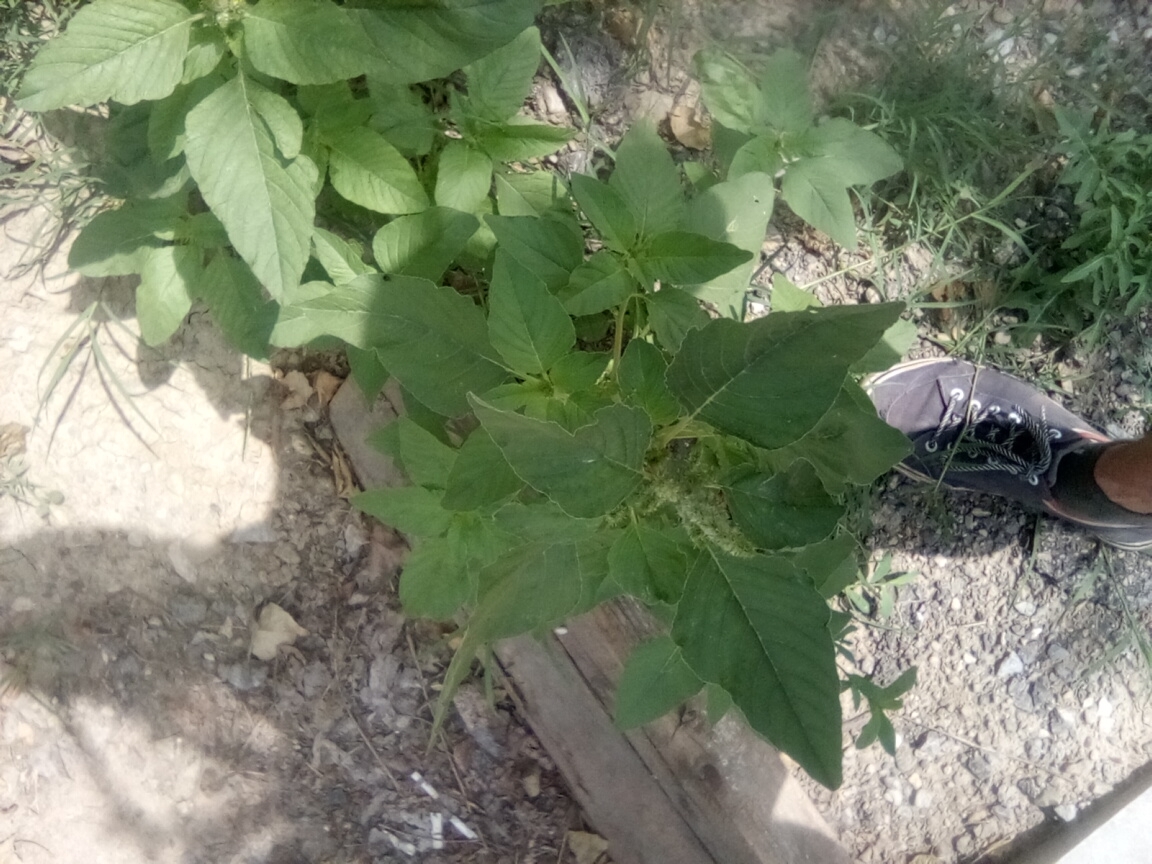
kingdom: Plantae
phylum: Tracheophyta
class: Magnoliopsida
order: Caryophyllales
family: Amaranthaceae
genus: Amaranthus
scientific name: Amaranthus retroflexus
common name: Redroot amaranth
